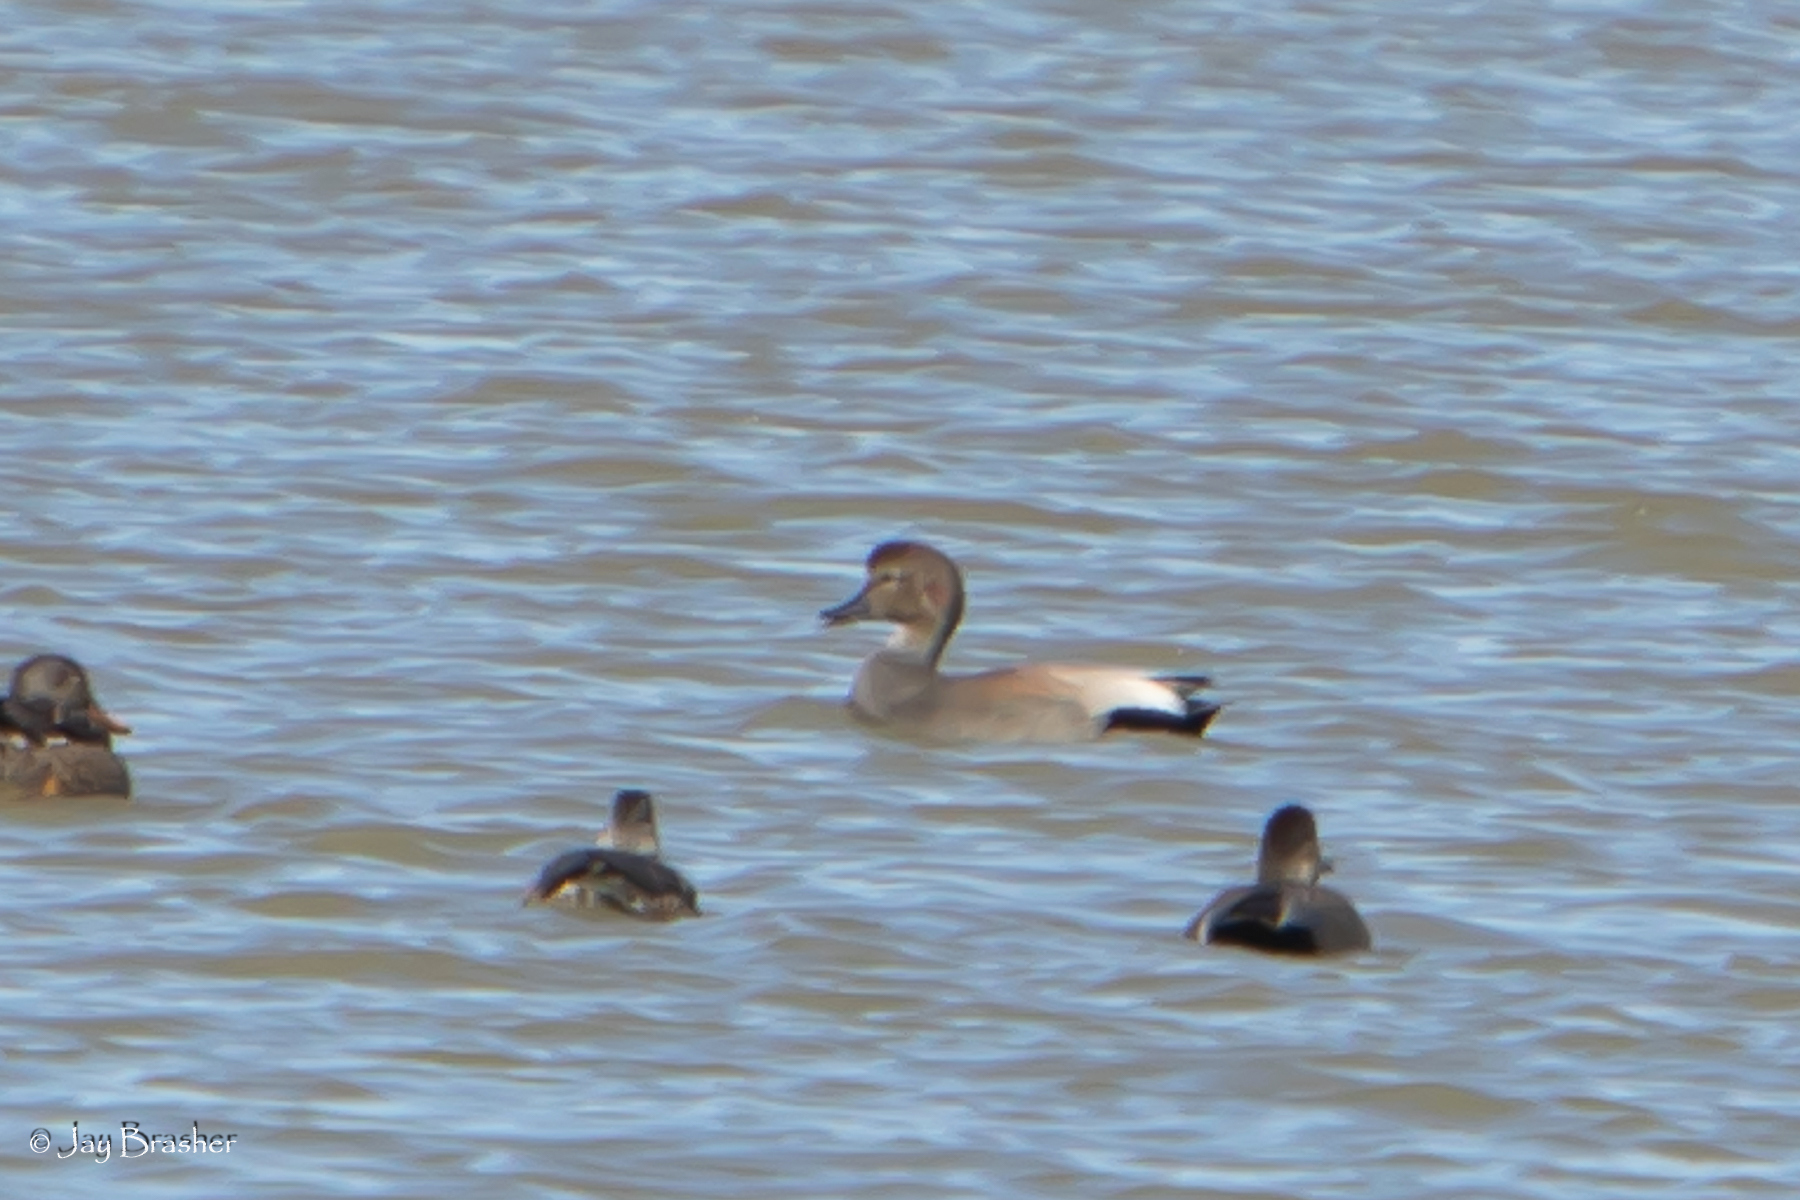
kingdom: Animalia
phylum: Chordata
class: Aves
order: Anseriformes
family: Anatidae
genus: Mareca
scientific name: Mareca strepera
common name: Gadwall
